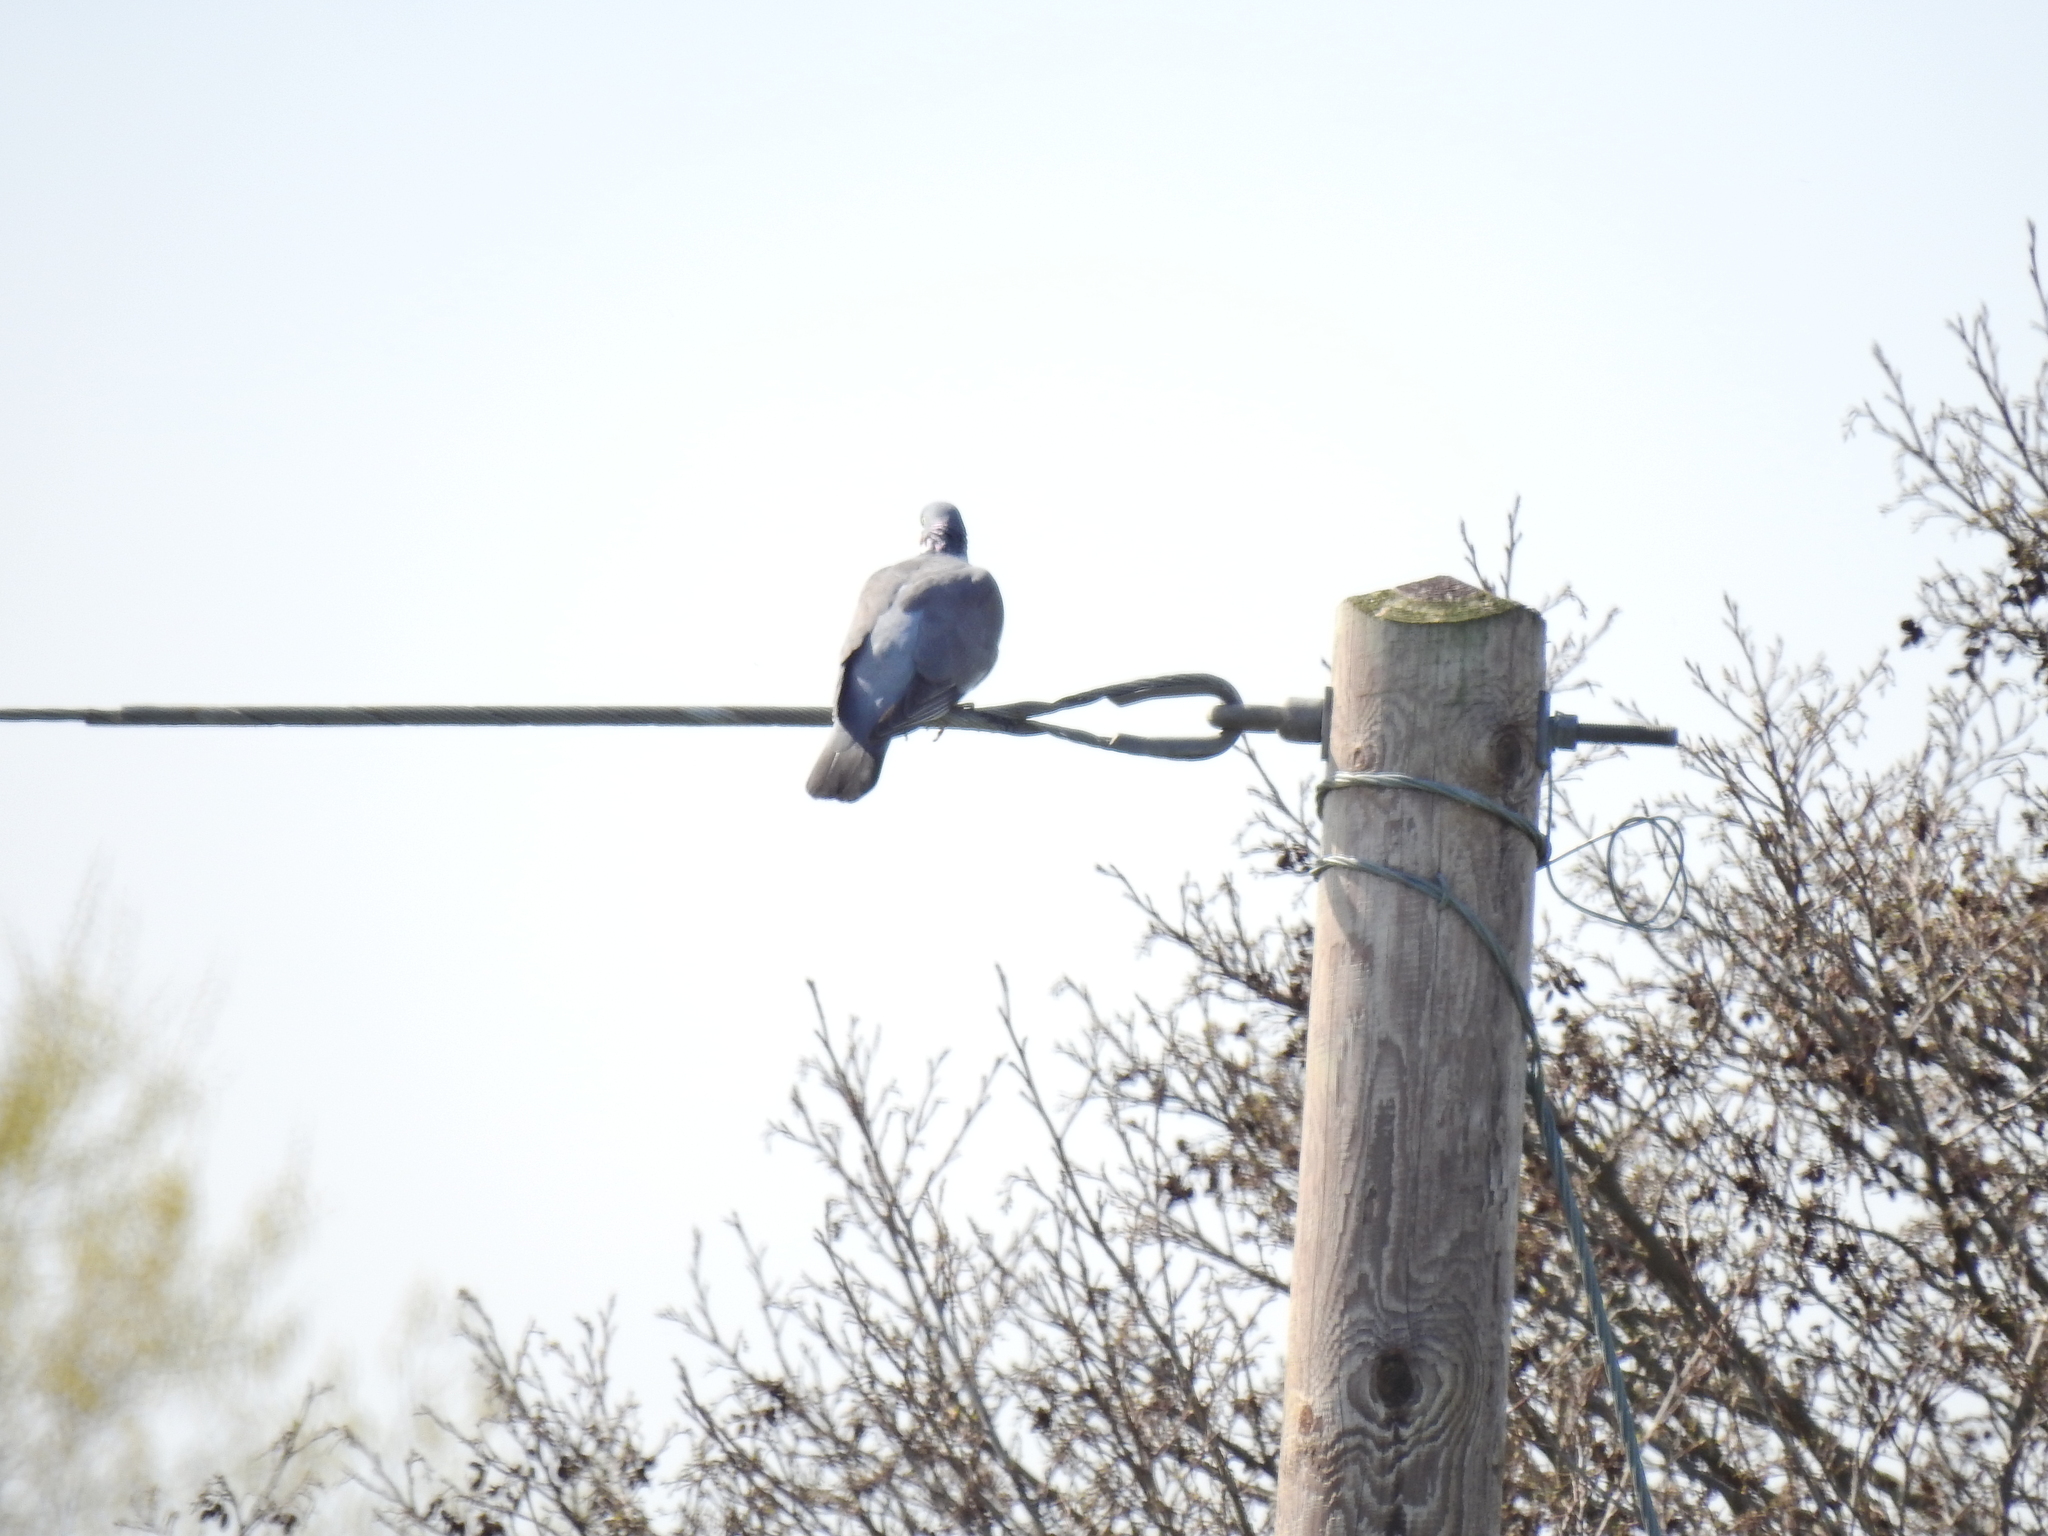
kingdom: Animalia
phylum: Chordata
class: Aves
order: Columbiformes
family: Columbidae
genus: Columba
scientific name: Columba palumbus
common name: Common wood pigeon
